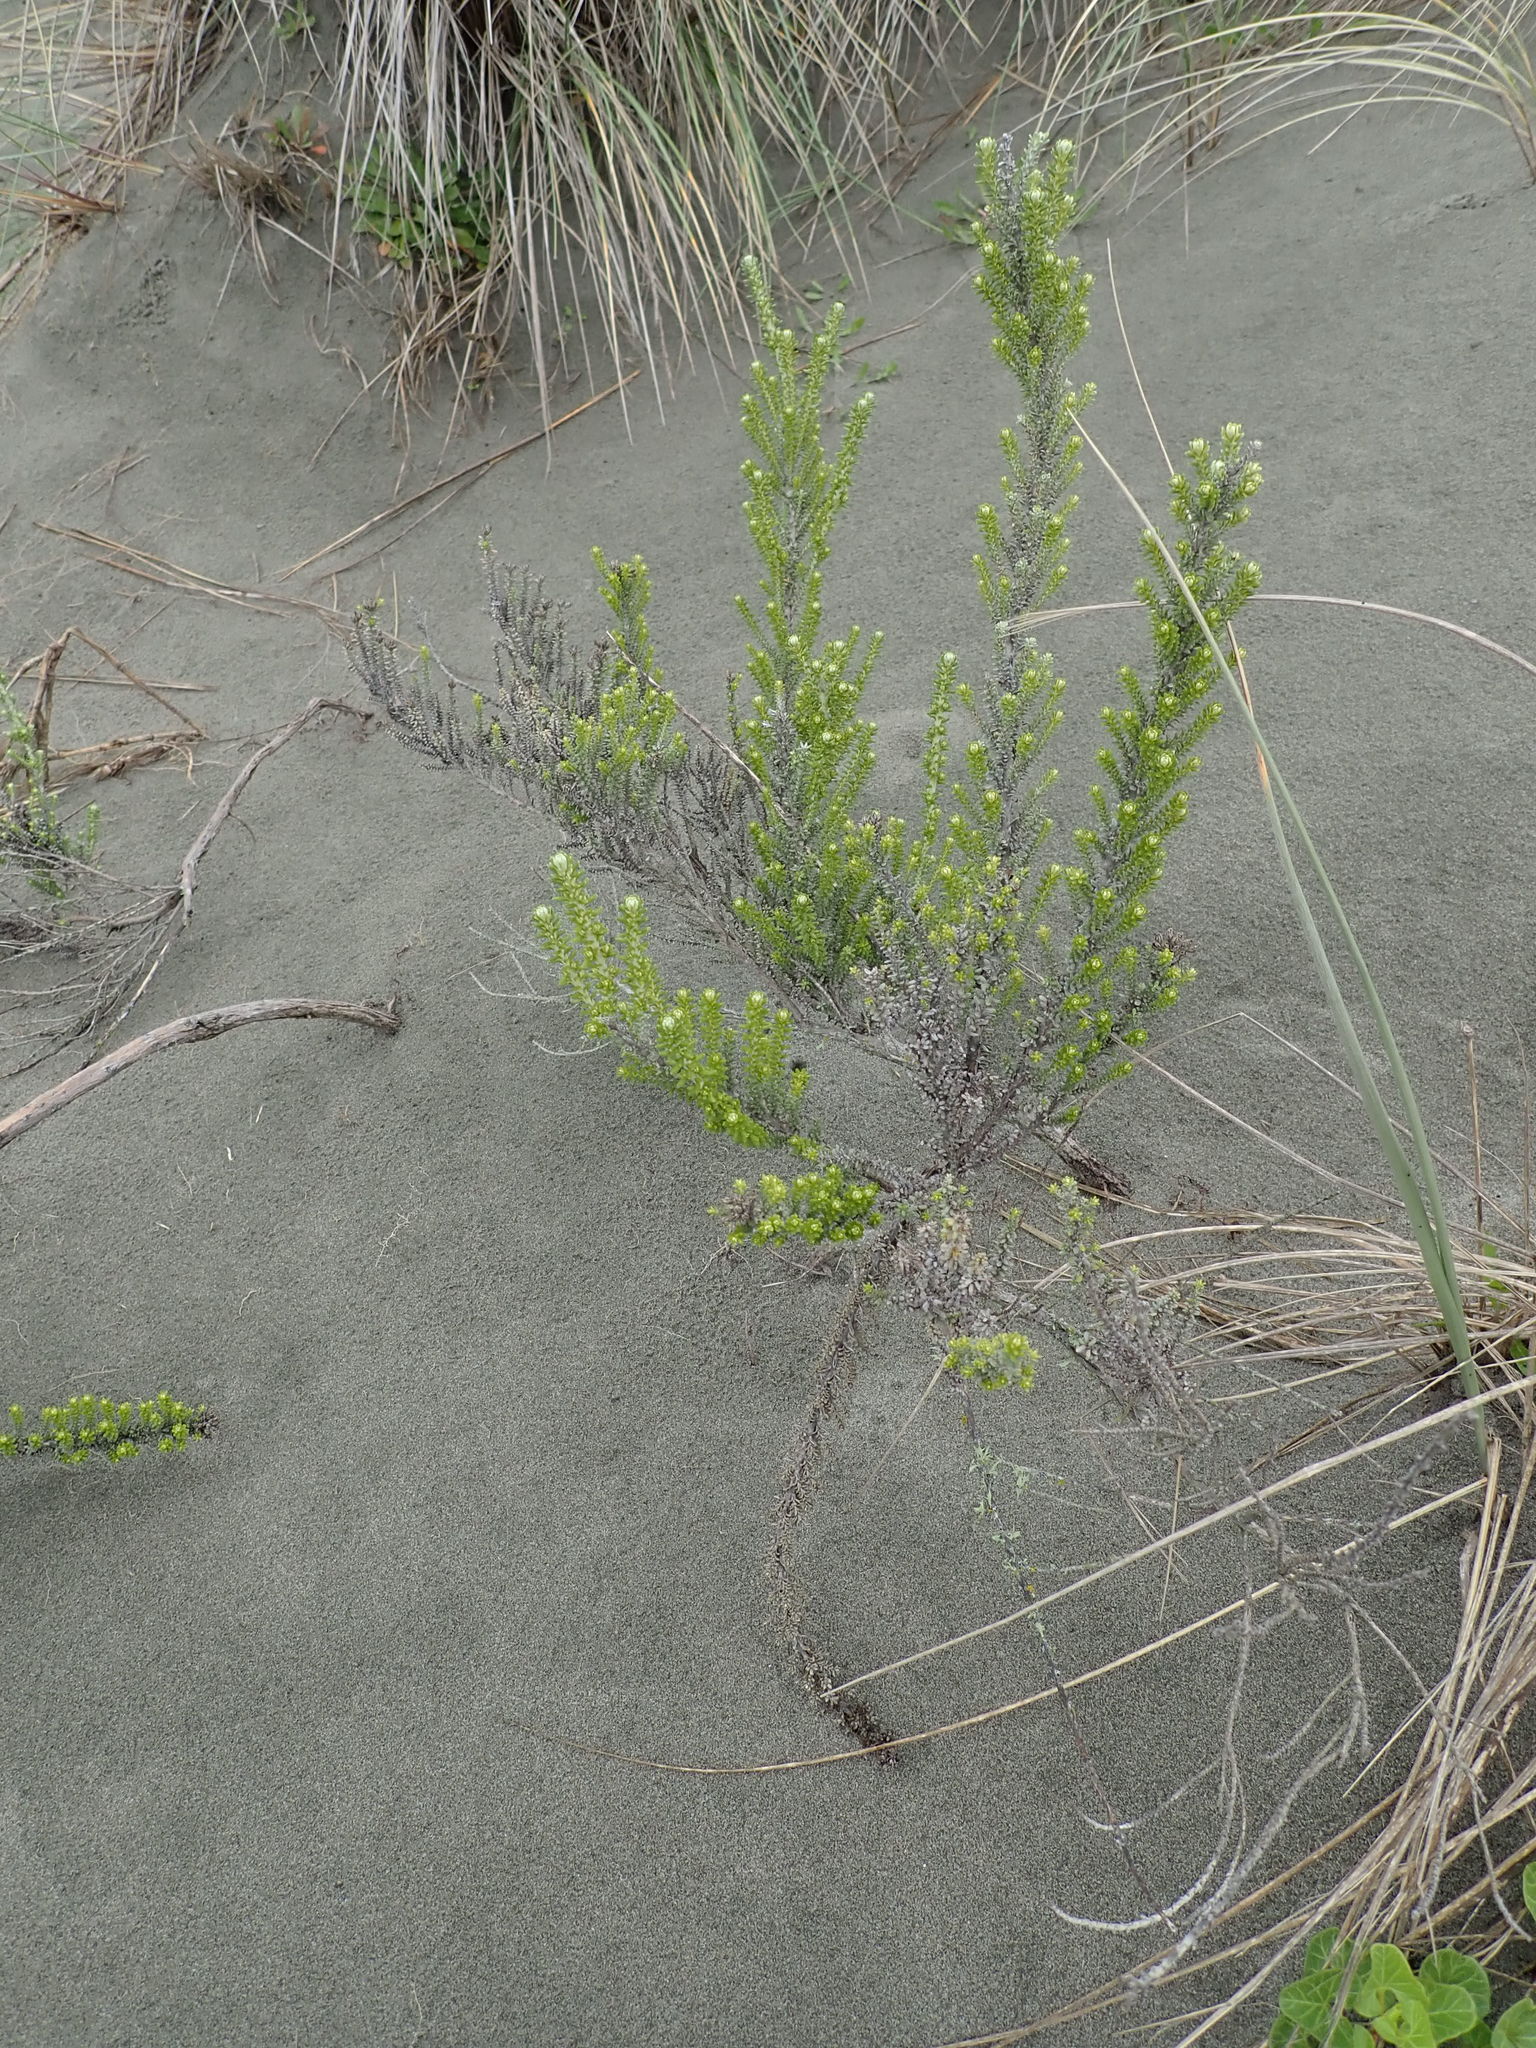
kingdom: Plantae
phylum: Tracheophyta
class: Magnoliopsida
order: Asterales
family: Asteraceae
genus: Ozothamnus
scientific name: Ozothamnus leptophyllus
